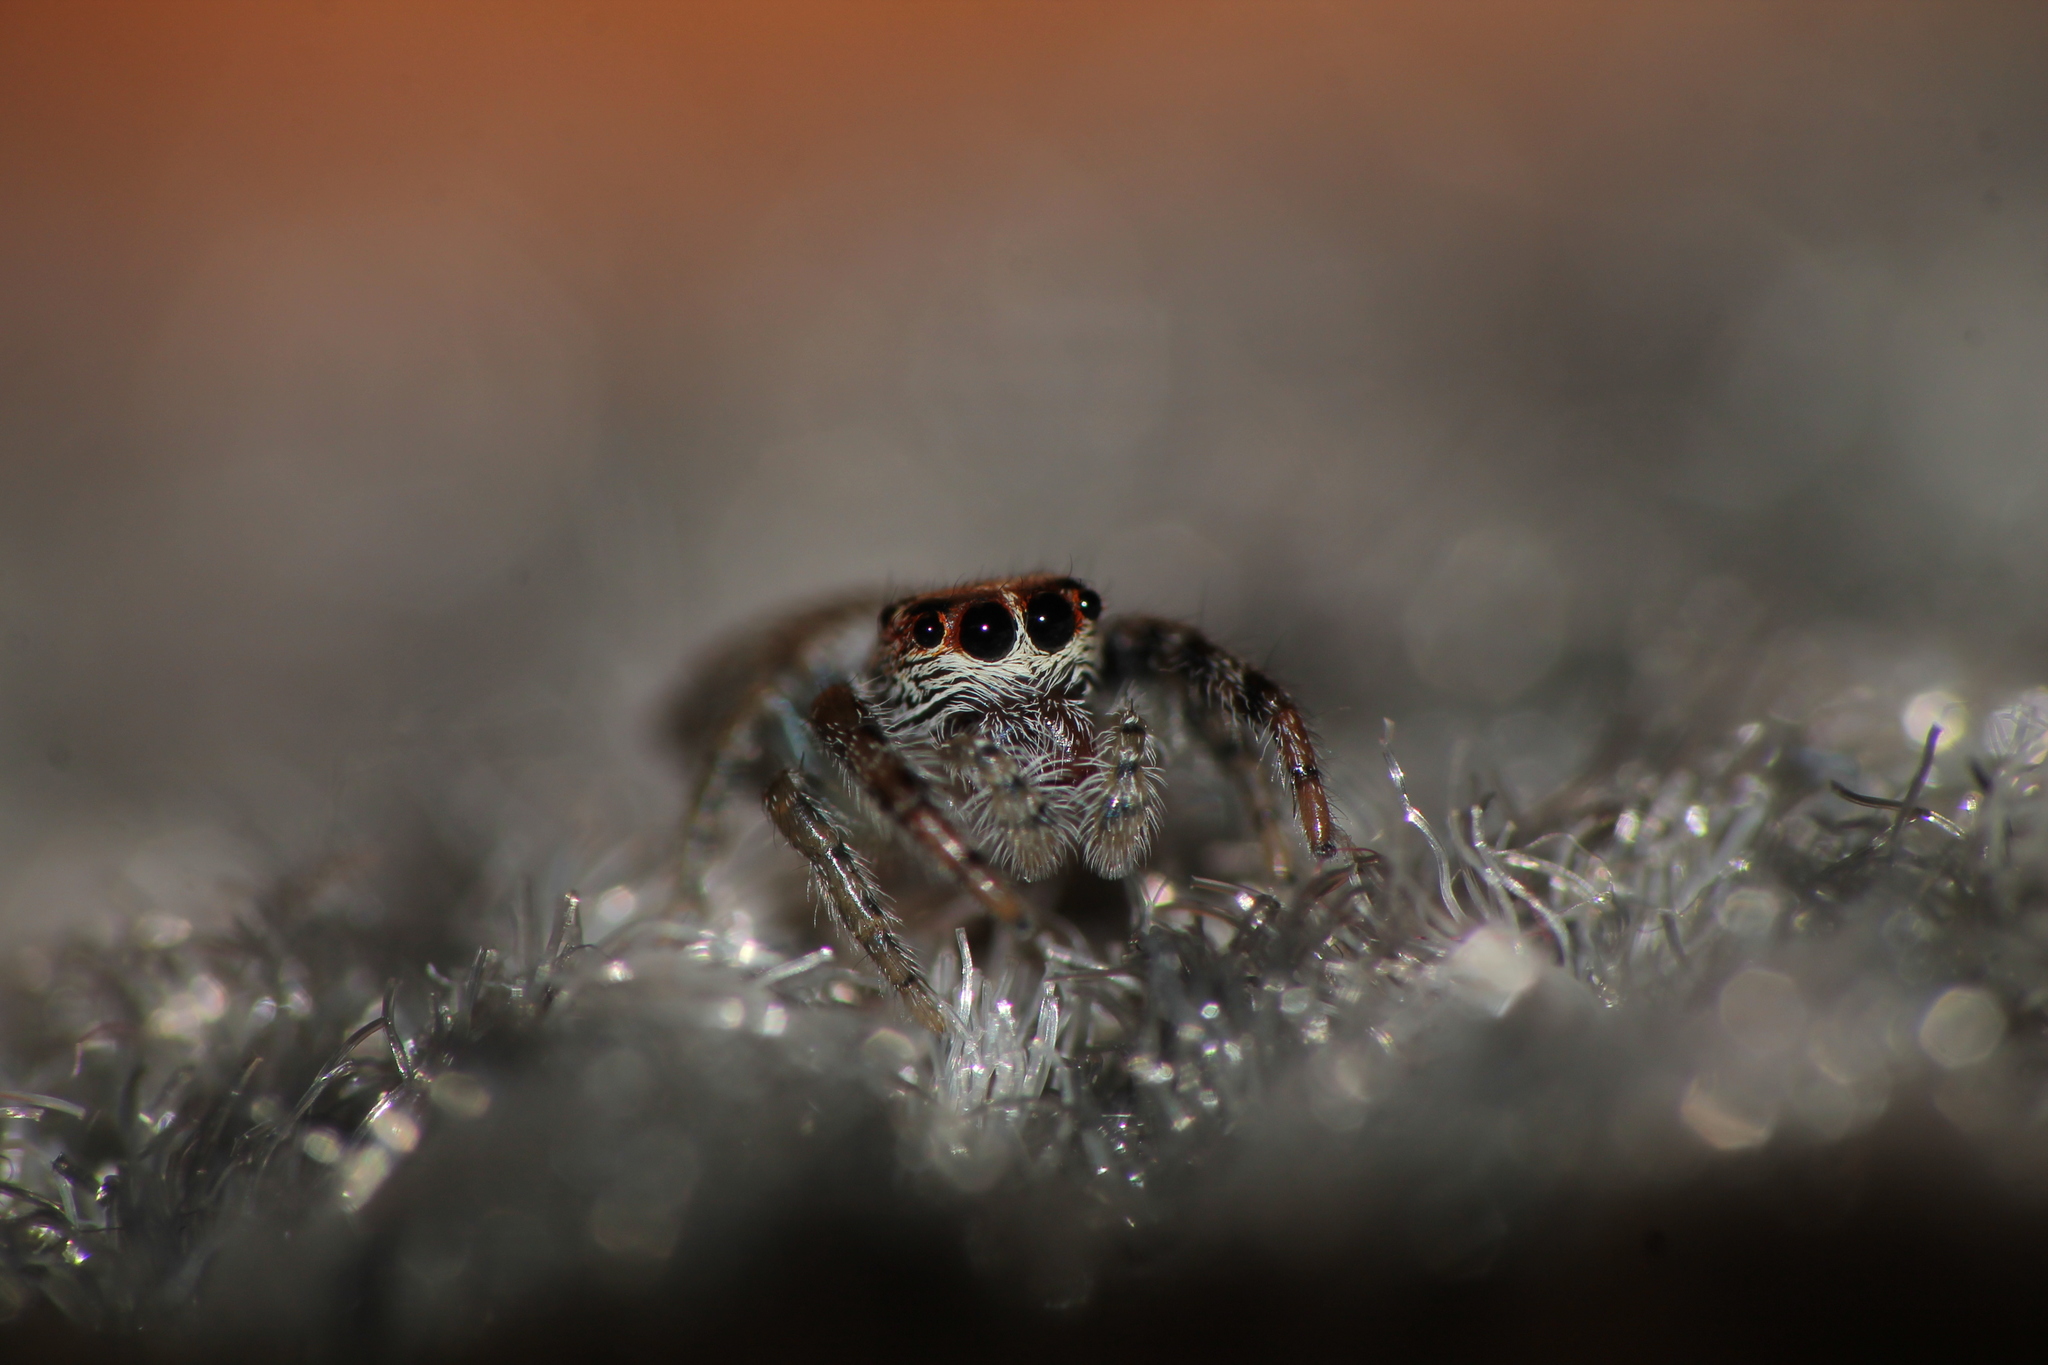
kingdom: Animalia
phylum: Arthropoda
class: Arachnida
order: Araneae
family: Salticidae
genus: Opisthoncus
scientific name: Opisthoncus polyphemus
